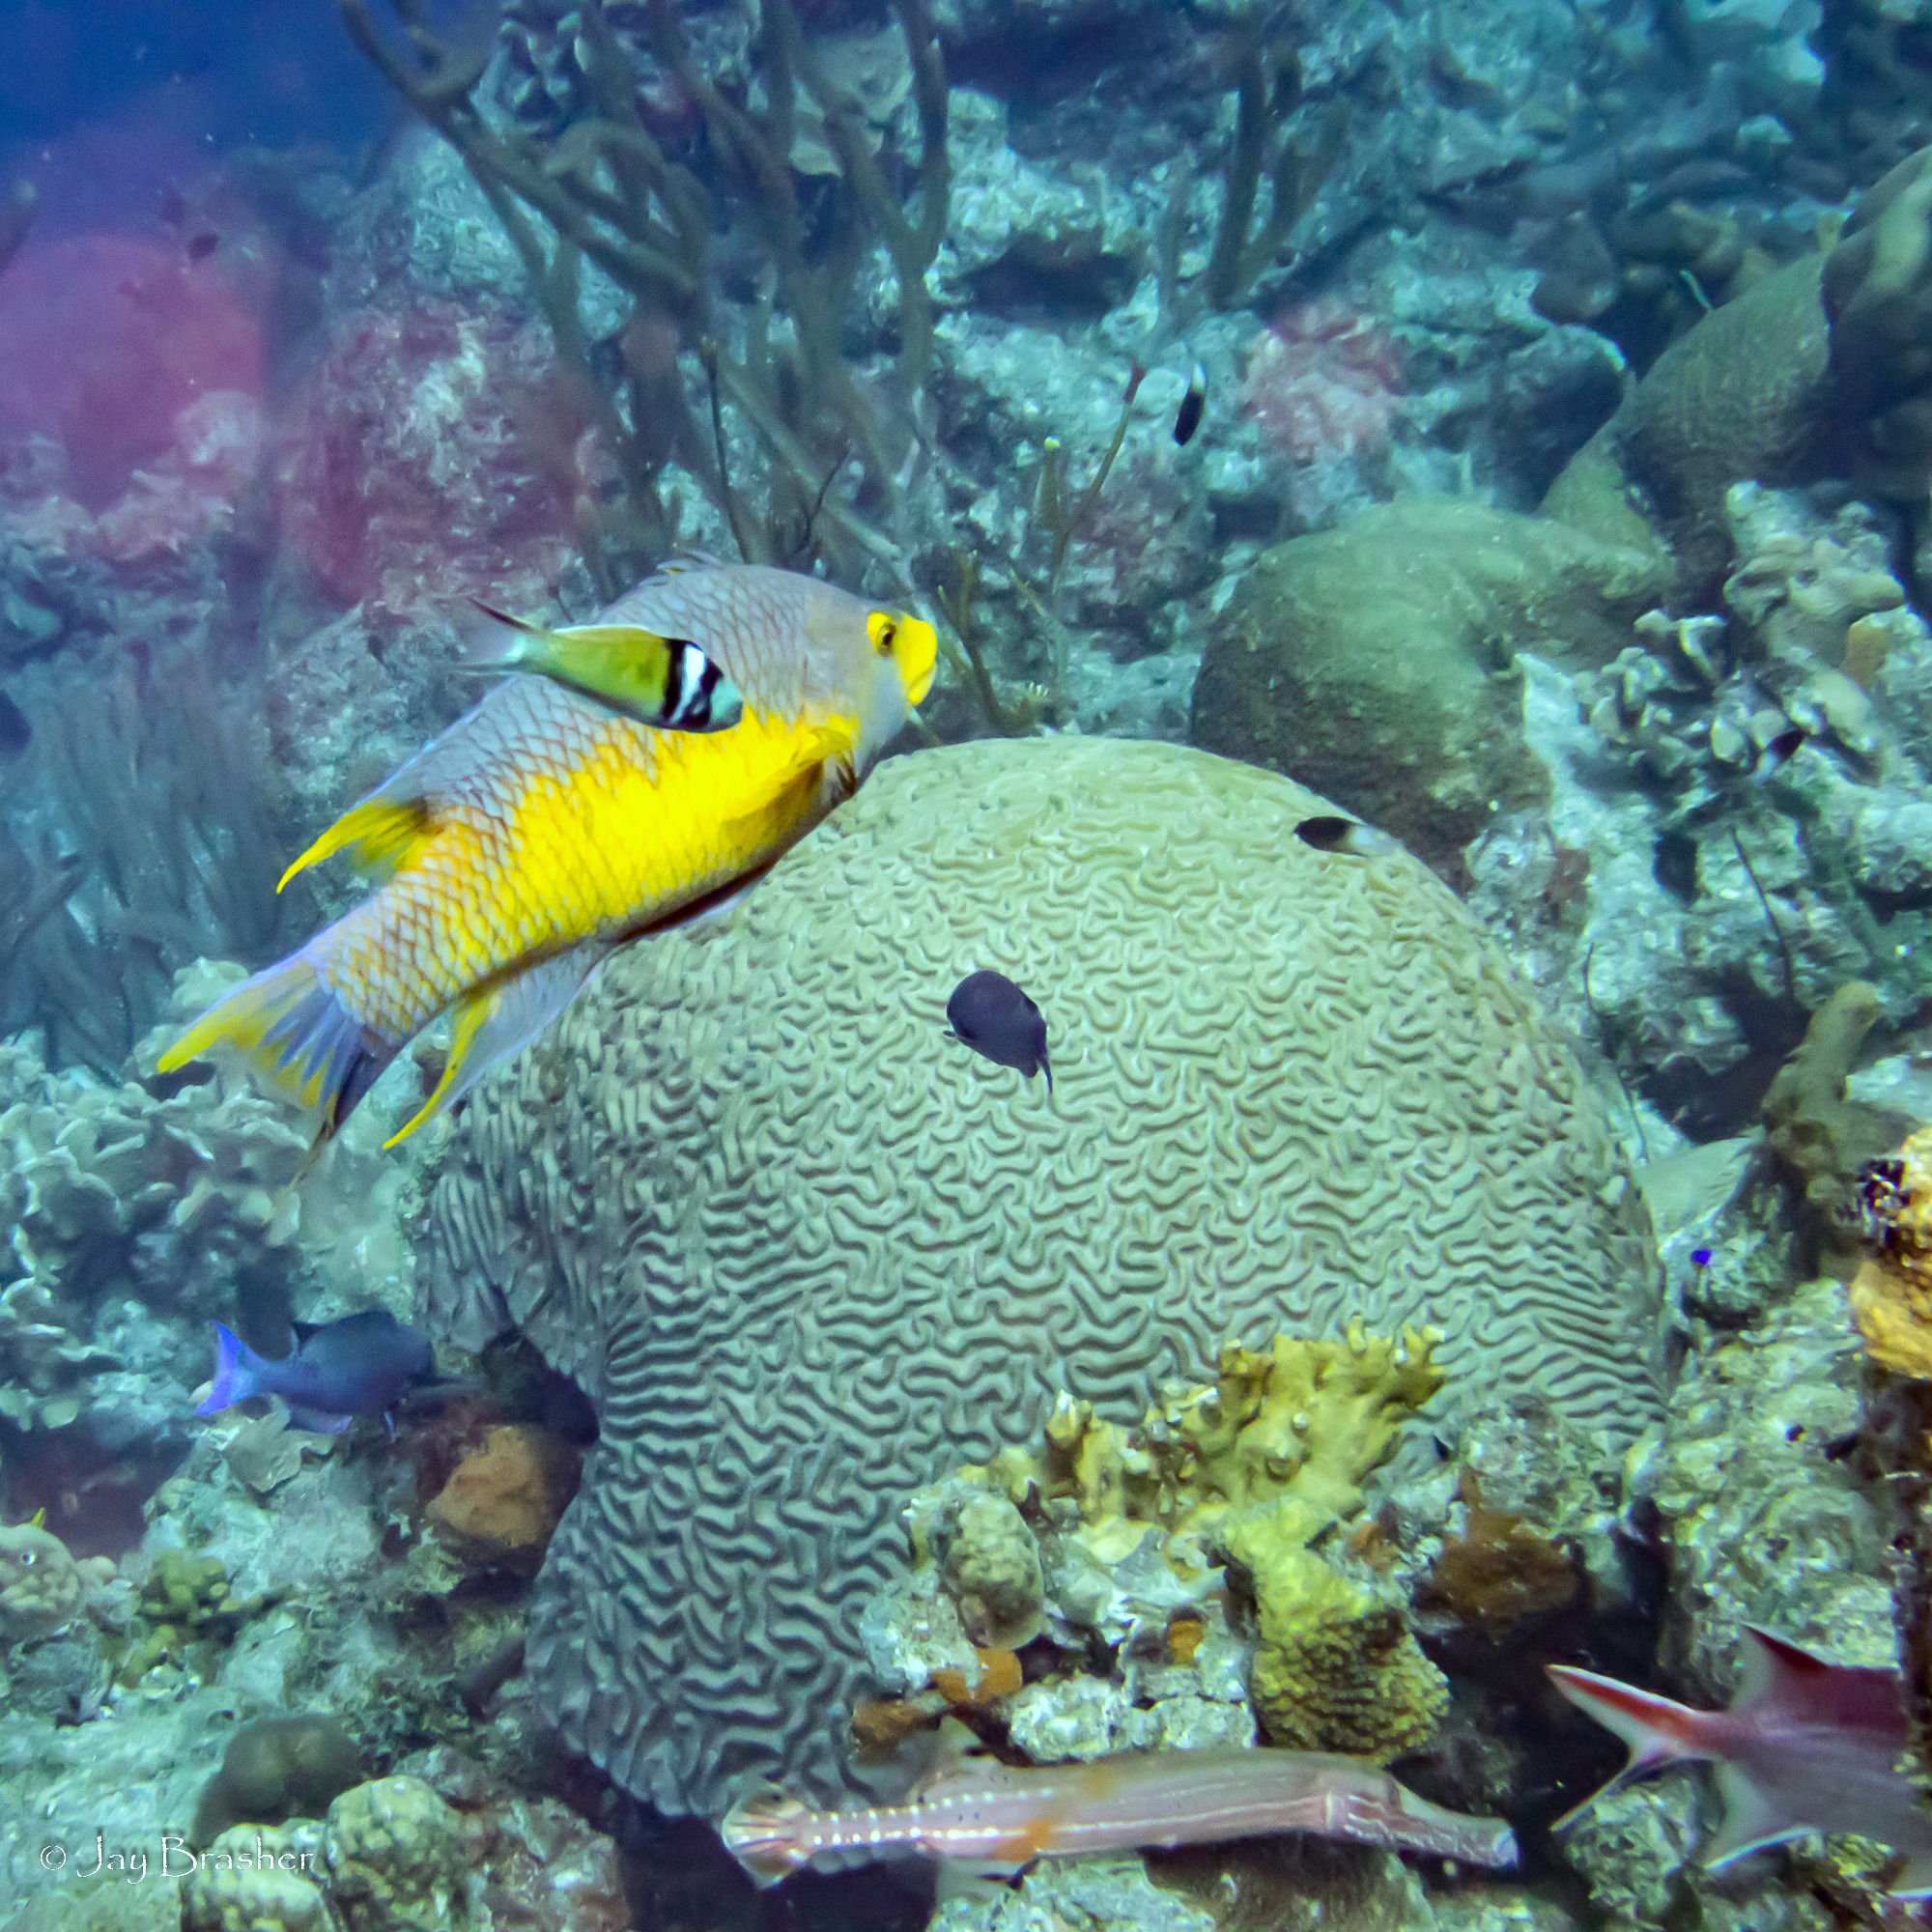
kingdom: Animalia
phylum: Chordata
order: Syngnathiformes
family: Aulostomidae
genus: Aulostomus
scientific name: Aulostomus maculatus
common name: West atlantic trumpetfish
